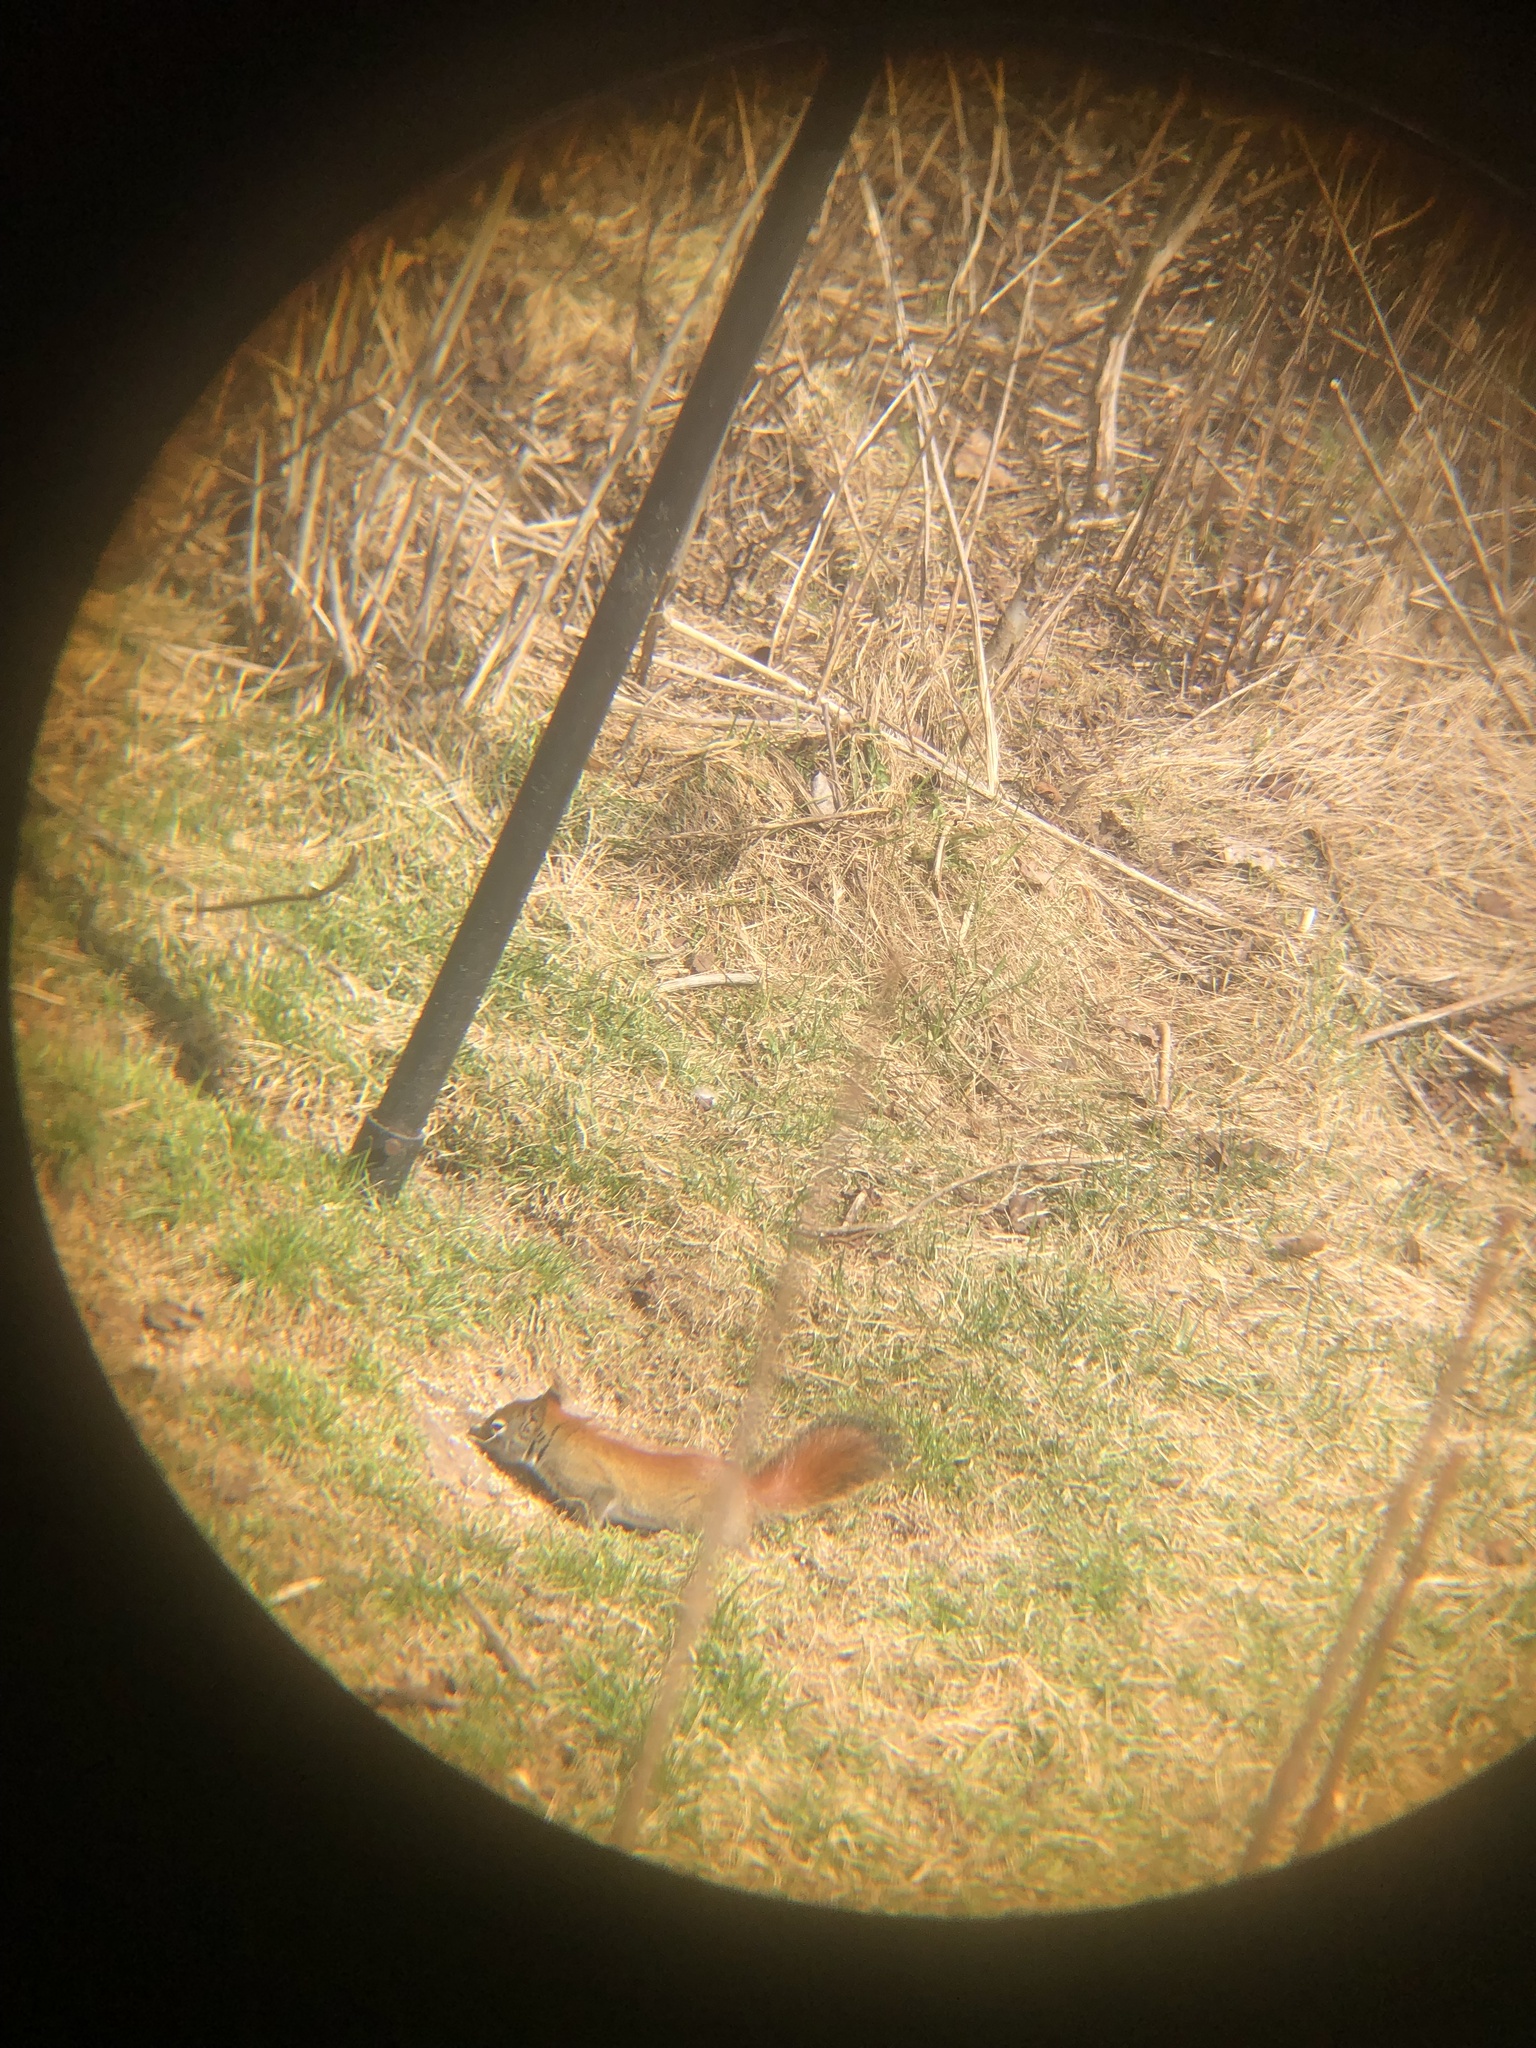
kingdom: Animalia
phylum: Chordata
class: Mammalia
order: Rodentia
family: Sciuridae
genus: Tamiasciurus
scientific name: Tamiasciurus hudsonicus
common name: Red squirrel
